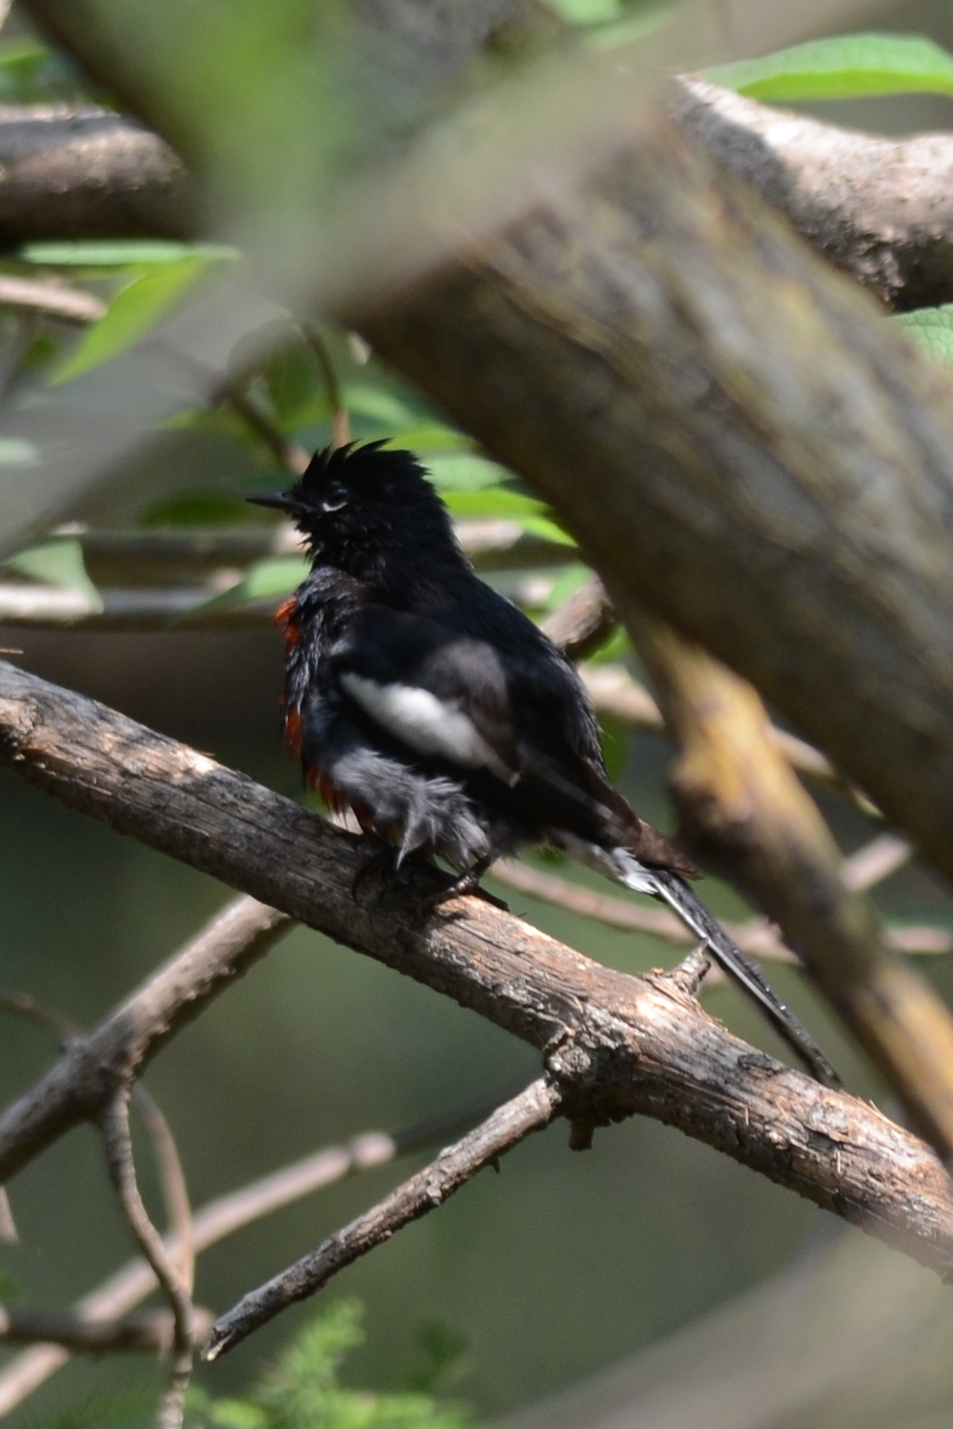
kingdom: Animalia
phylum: Chordata
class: Aves
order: Passeriformes
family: Parulidae
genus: Myioborus
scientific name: Myioborus pictus
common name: Painted whitestart
